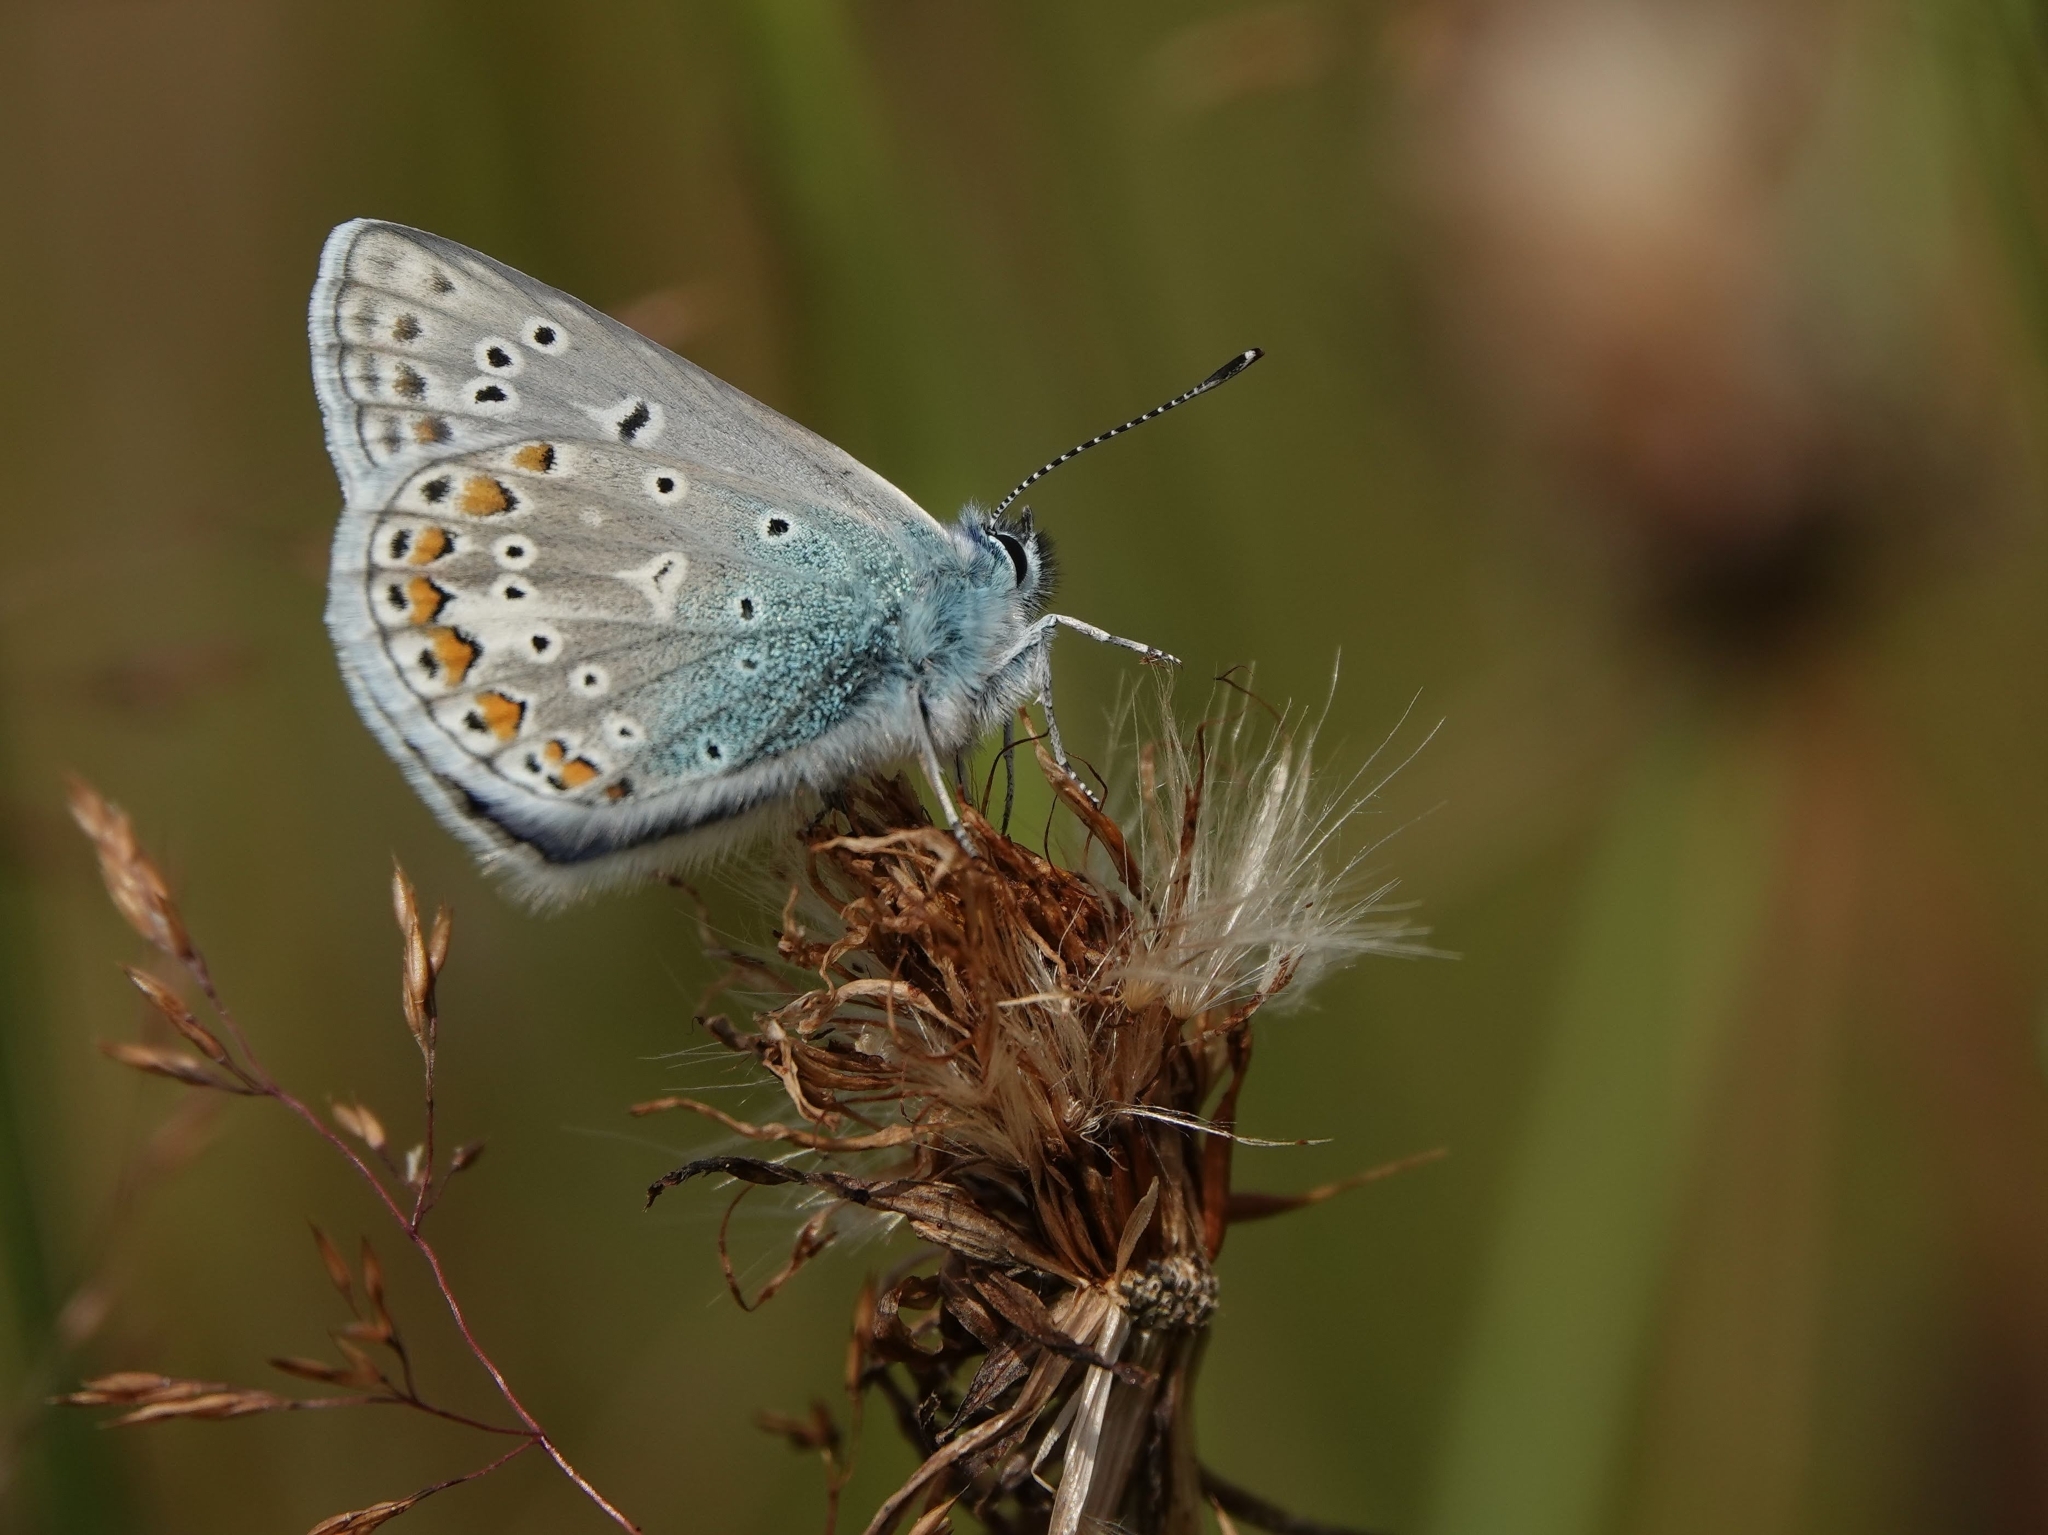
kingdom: Animalia
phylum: Arthropoda
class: Insecta
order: Lepidoptera
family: Lycaenidae
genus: Polyommatus
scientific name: Polyommatus icarus
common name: Common blue
